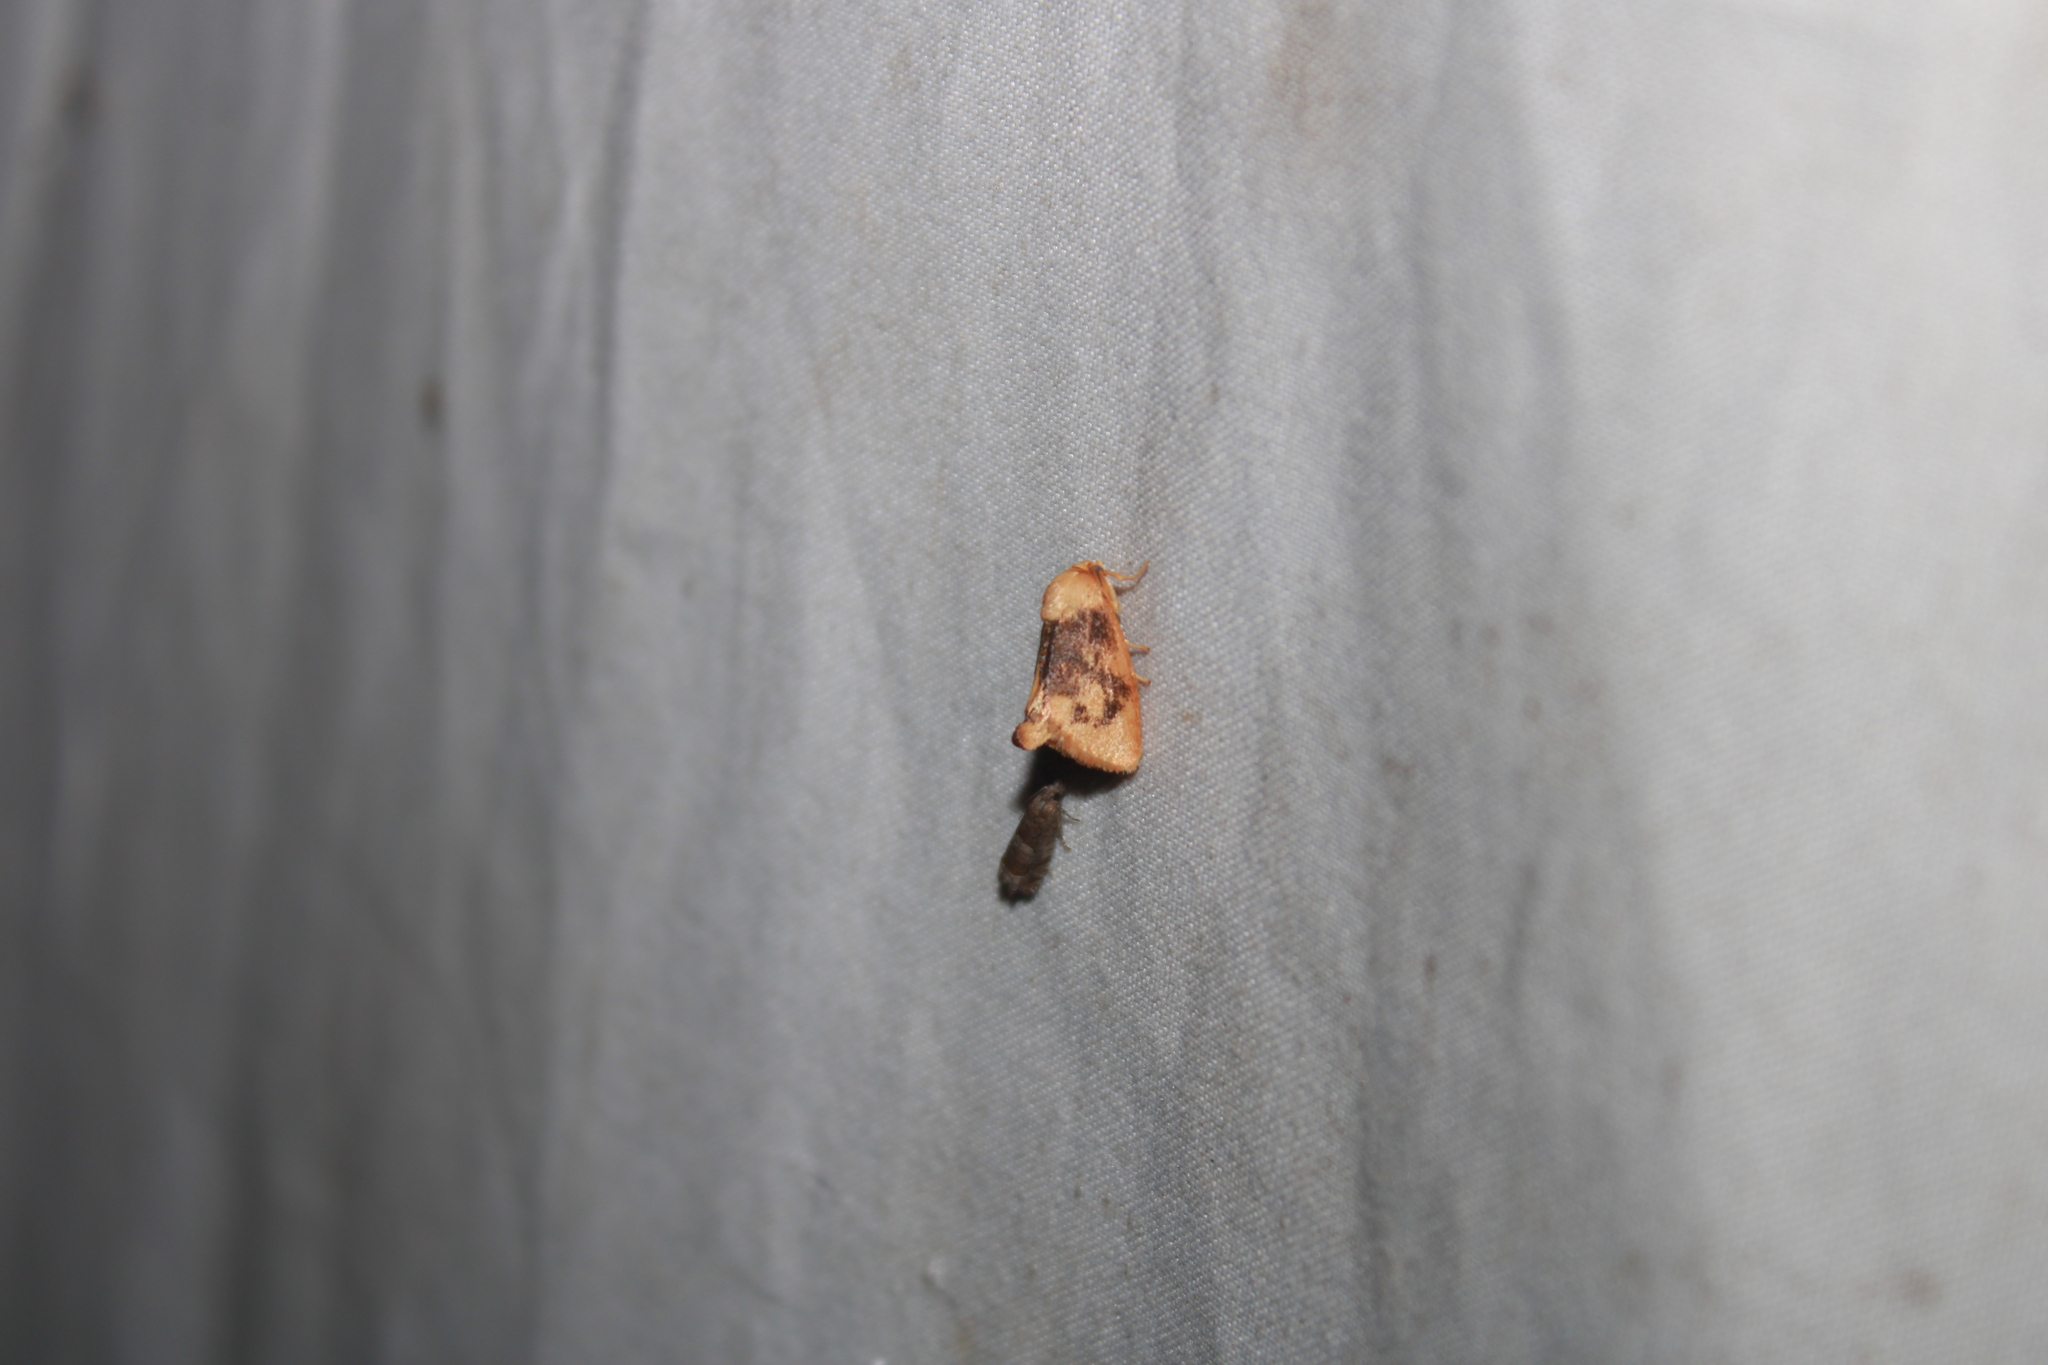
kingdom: Animalia
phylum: Arthropoda
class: Insecta
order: Lepidoptera
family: Limacodidae
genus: Tortricidia
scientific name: Tortricidia flexuosa
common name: Abbreviated button slug moth
